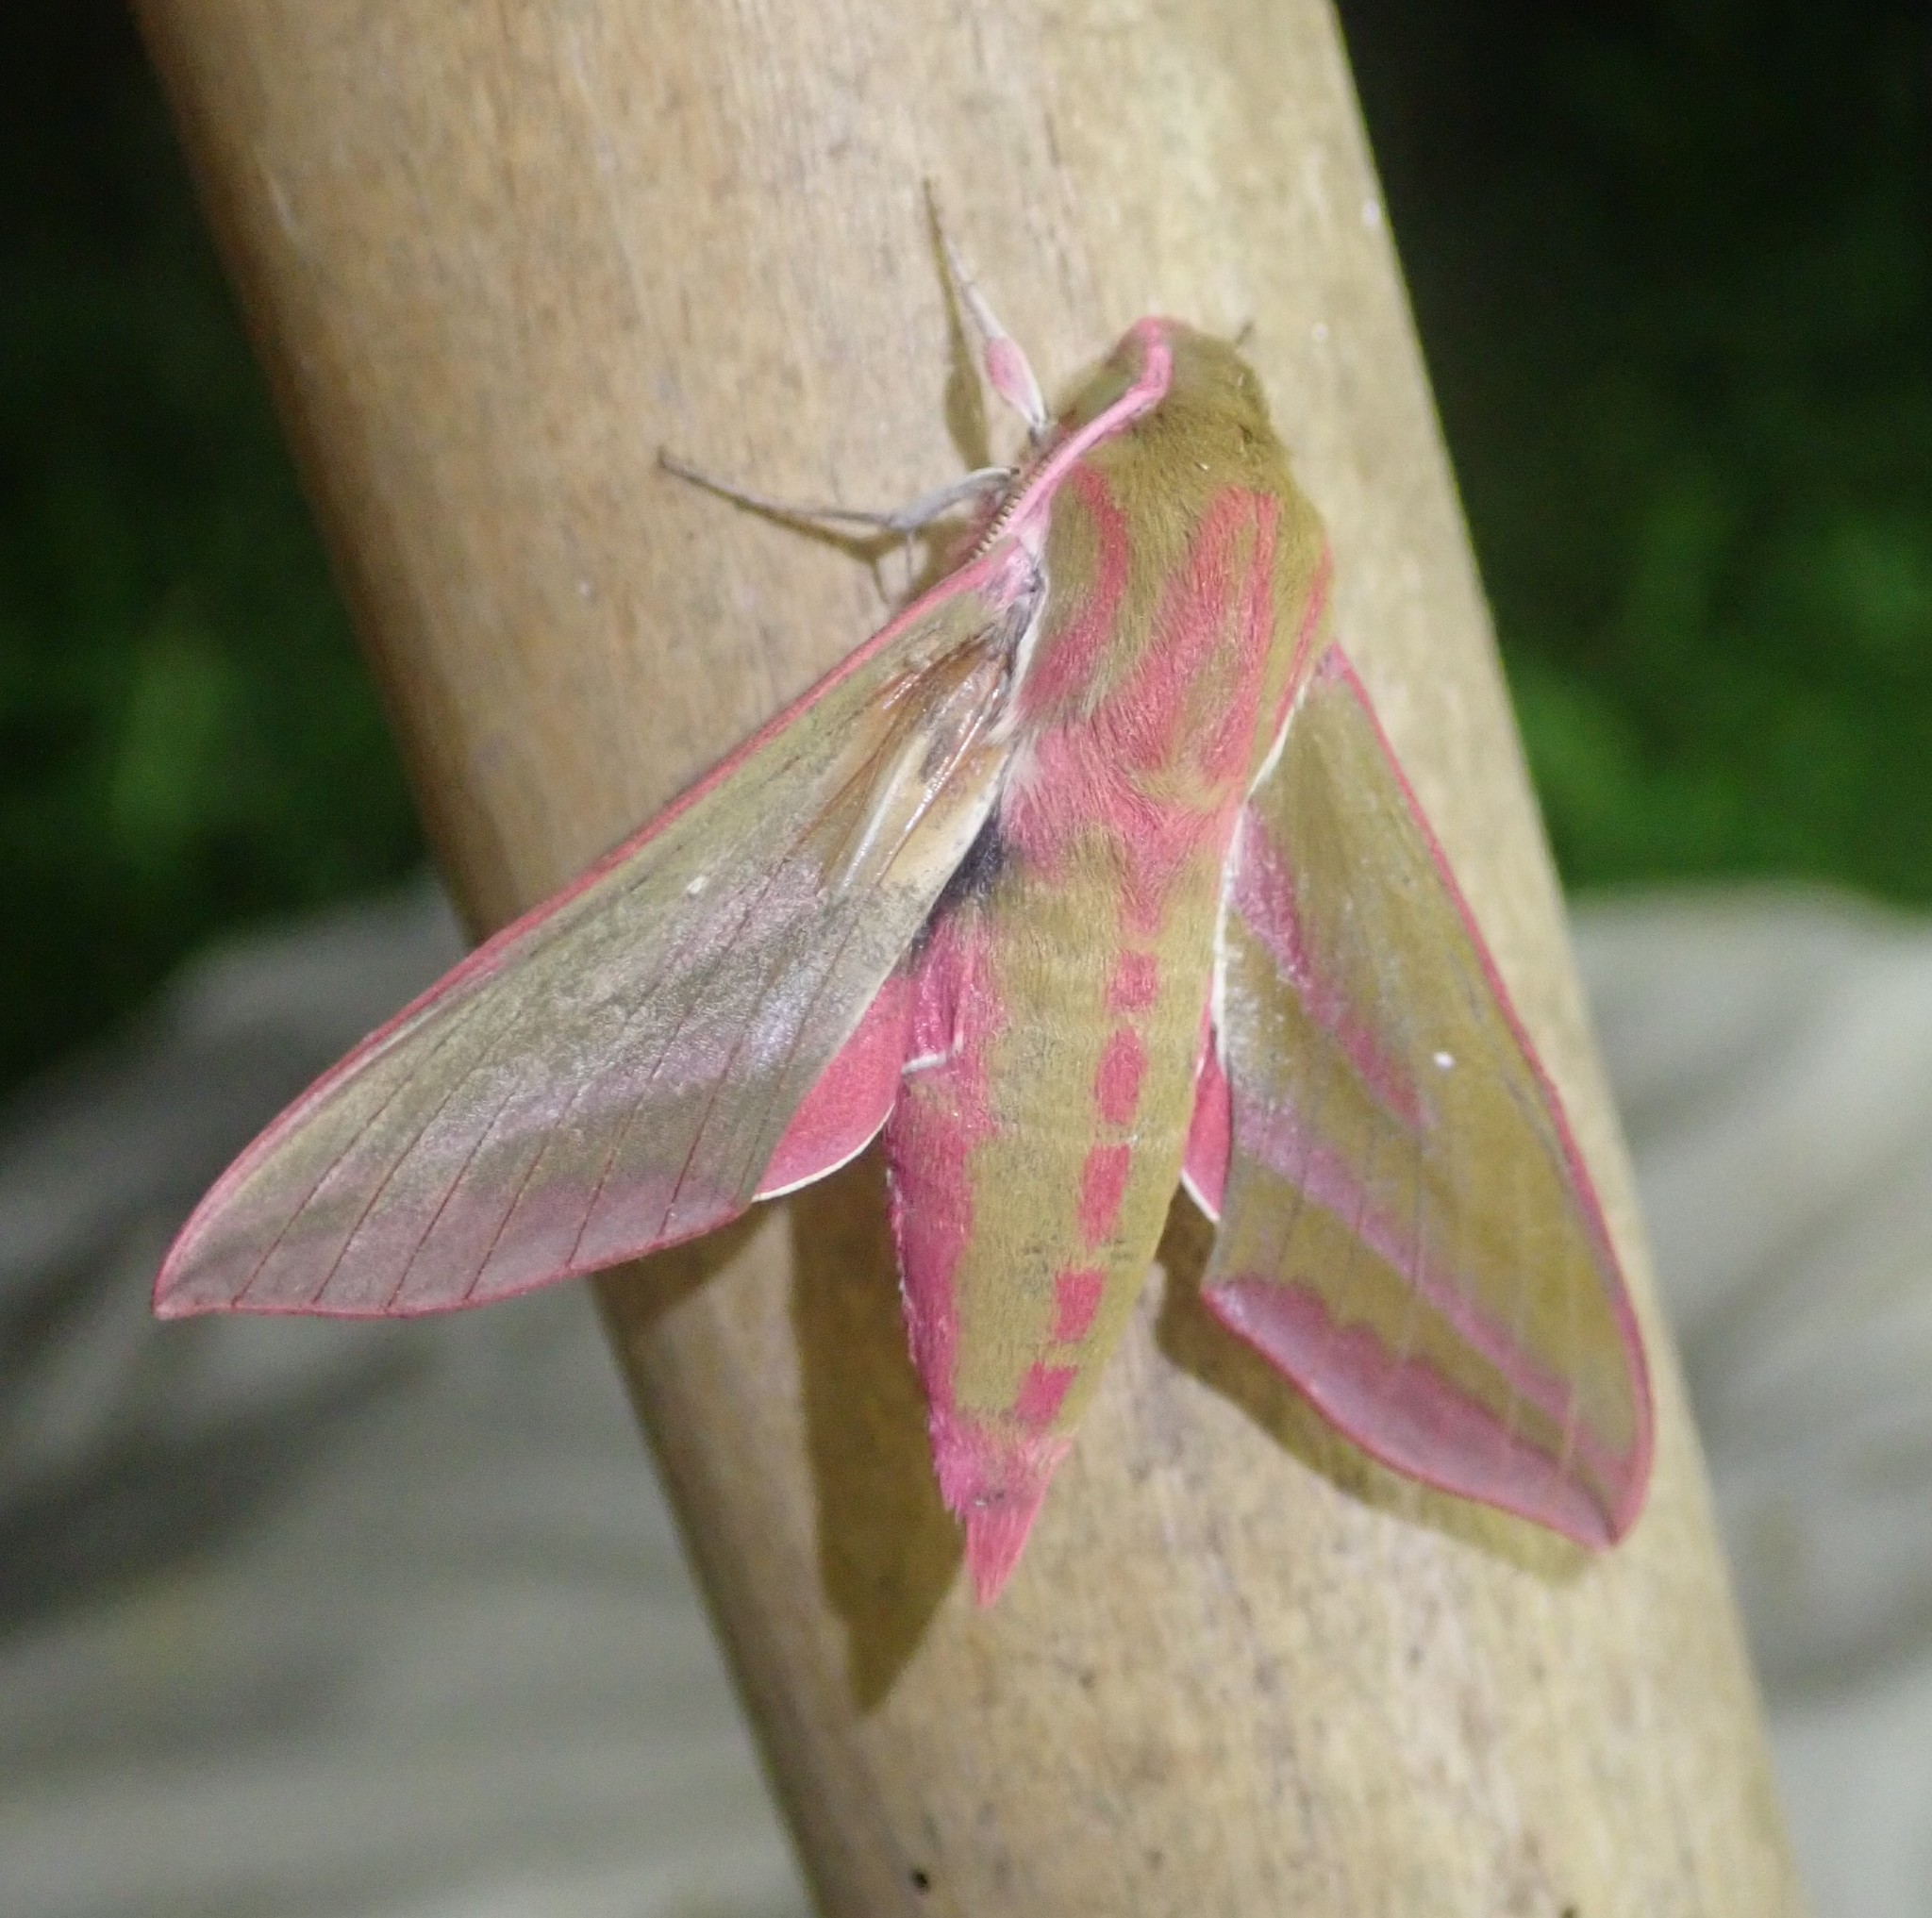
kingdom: Animalia
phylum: Arthropoda
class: Insecta
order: Lepidoptera
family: Sphingidae
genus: Deilephila
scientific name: Deilephila elpenor
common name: Elephant hawk-moth
